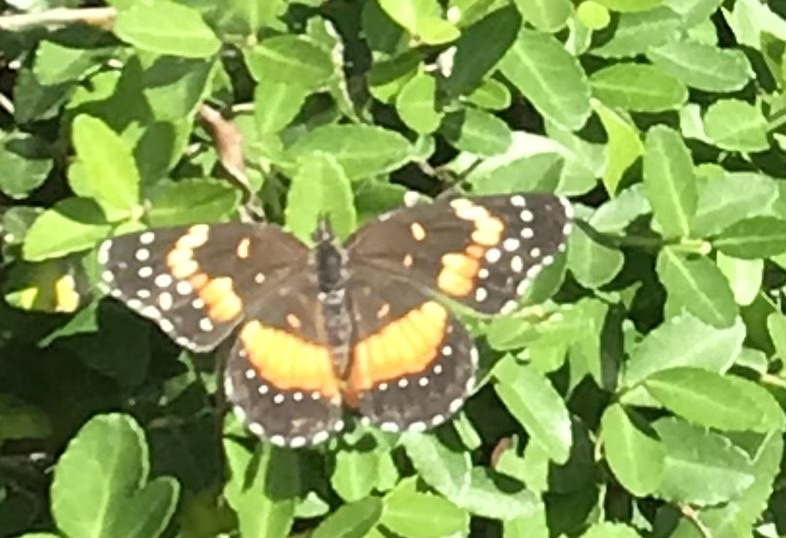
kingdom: Animalia
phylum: Arthropoda
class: Insecta
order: Lepidoptera
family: Nymphalidae
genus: Chlosyne
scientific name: Chlosyne lacinia
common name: Bordered patch
